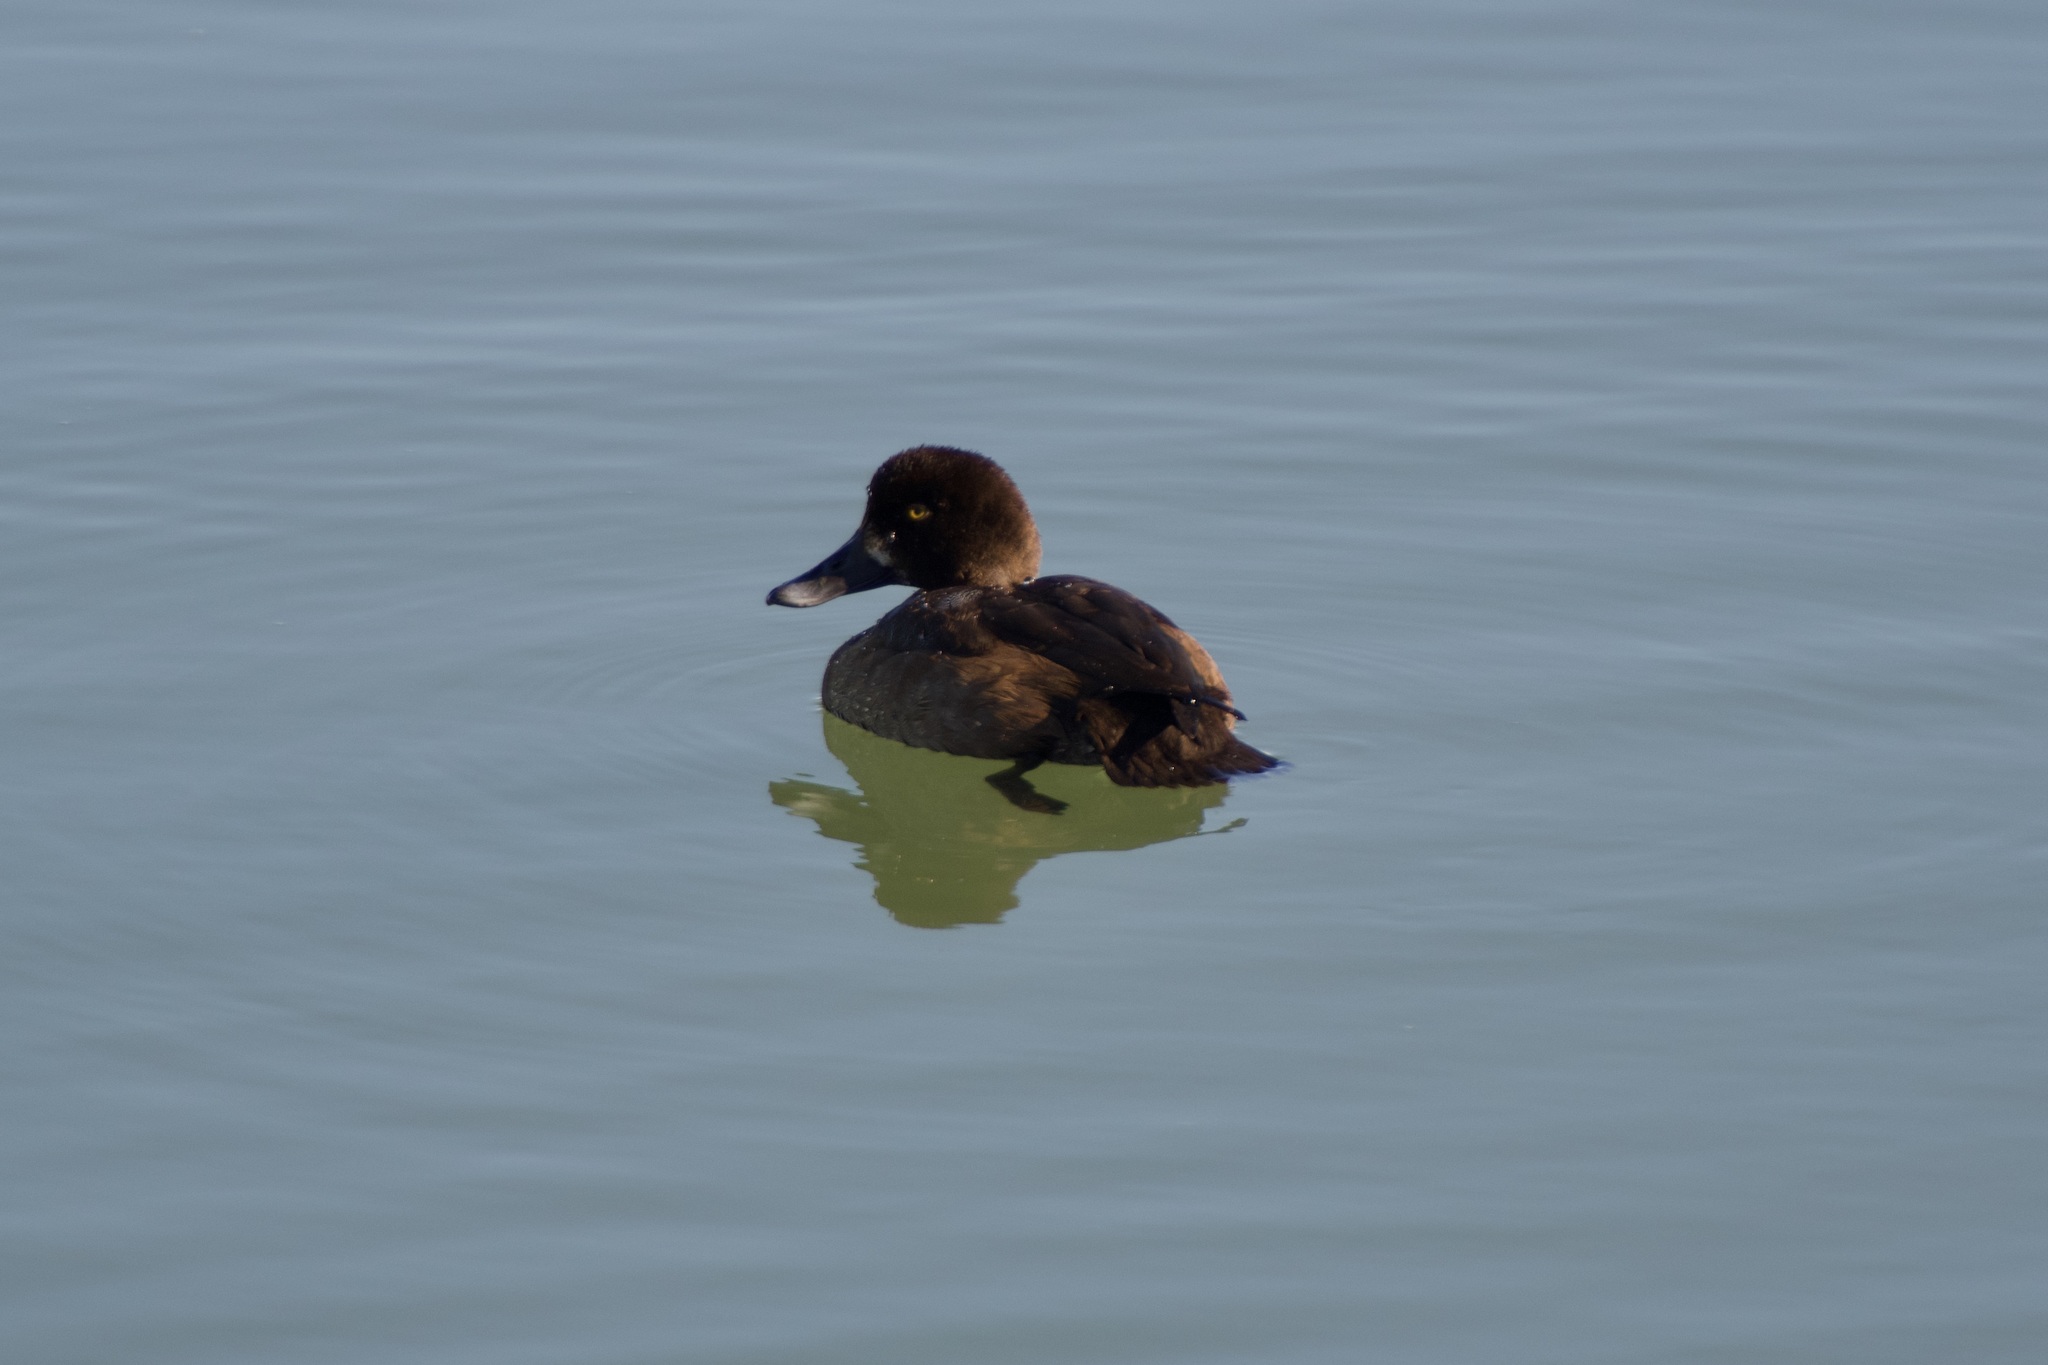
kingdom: Animalia
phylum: Chordata
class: Aves
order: Anseriformes
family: Anatidae
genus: Aythya
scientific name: Aythya marila
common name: Greater scaup
